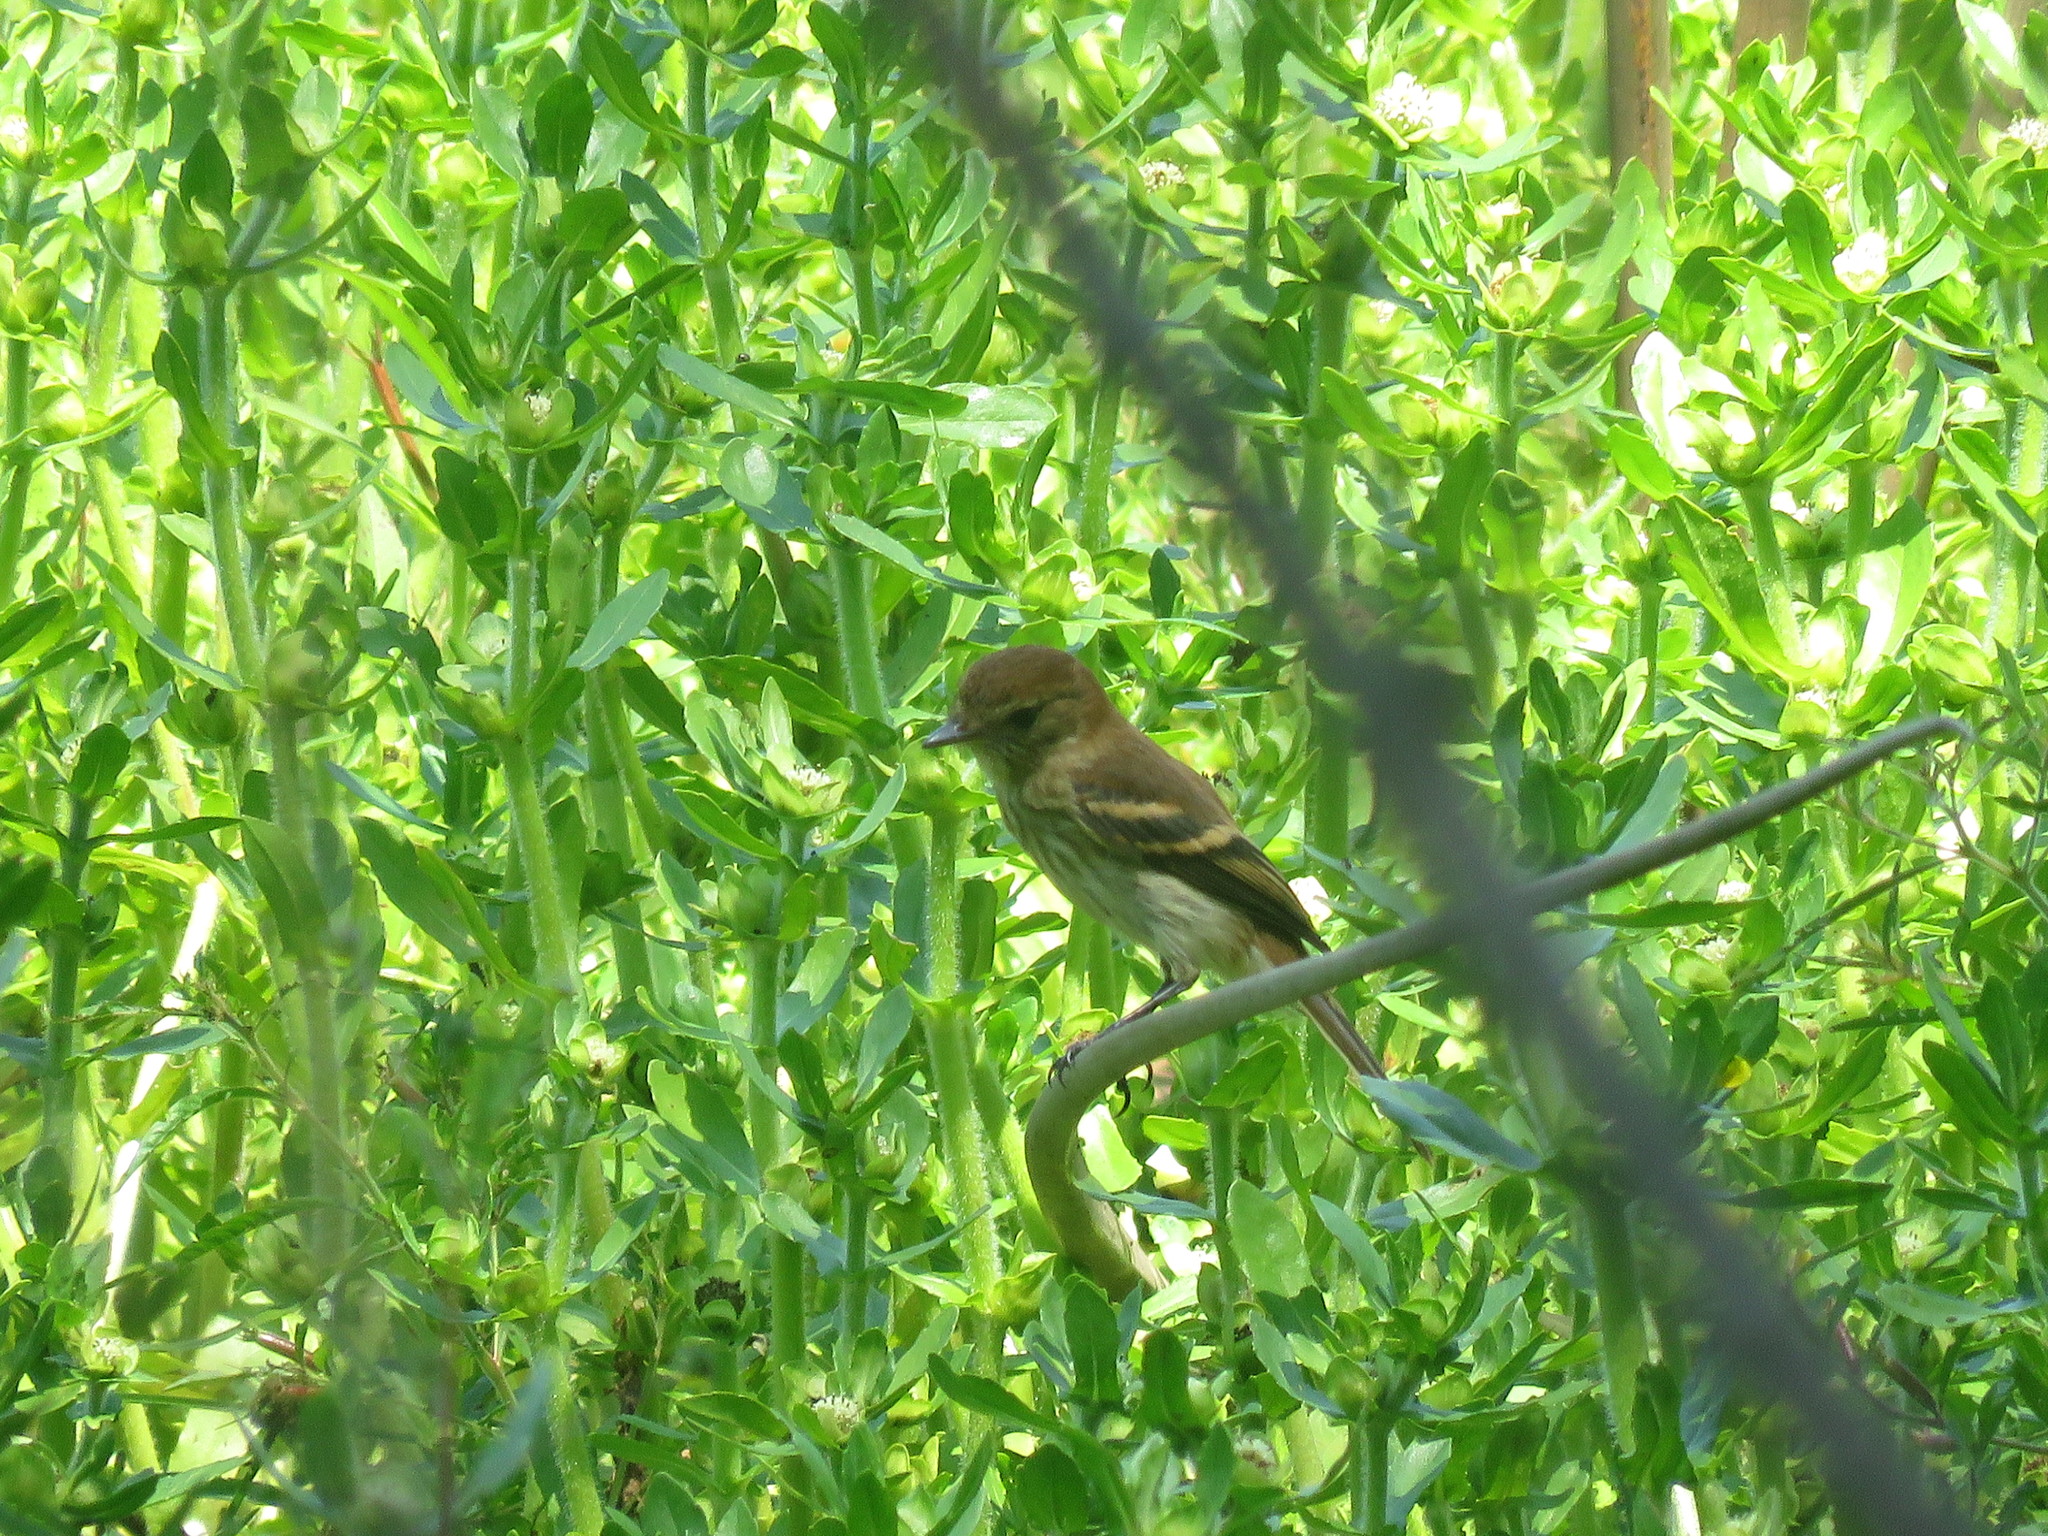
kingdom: Animalia
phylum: Chordata
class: Aves
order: Passeriformes
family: Tyrannidae
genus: Myiophobus
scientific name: Myiophobus fasciatus
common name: Bran-colored flycatcher
